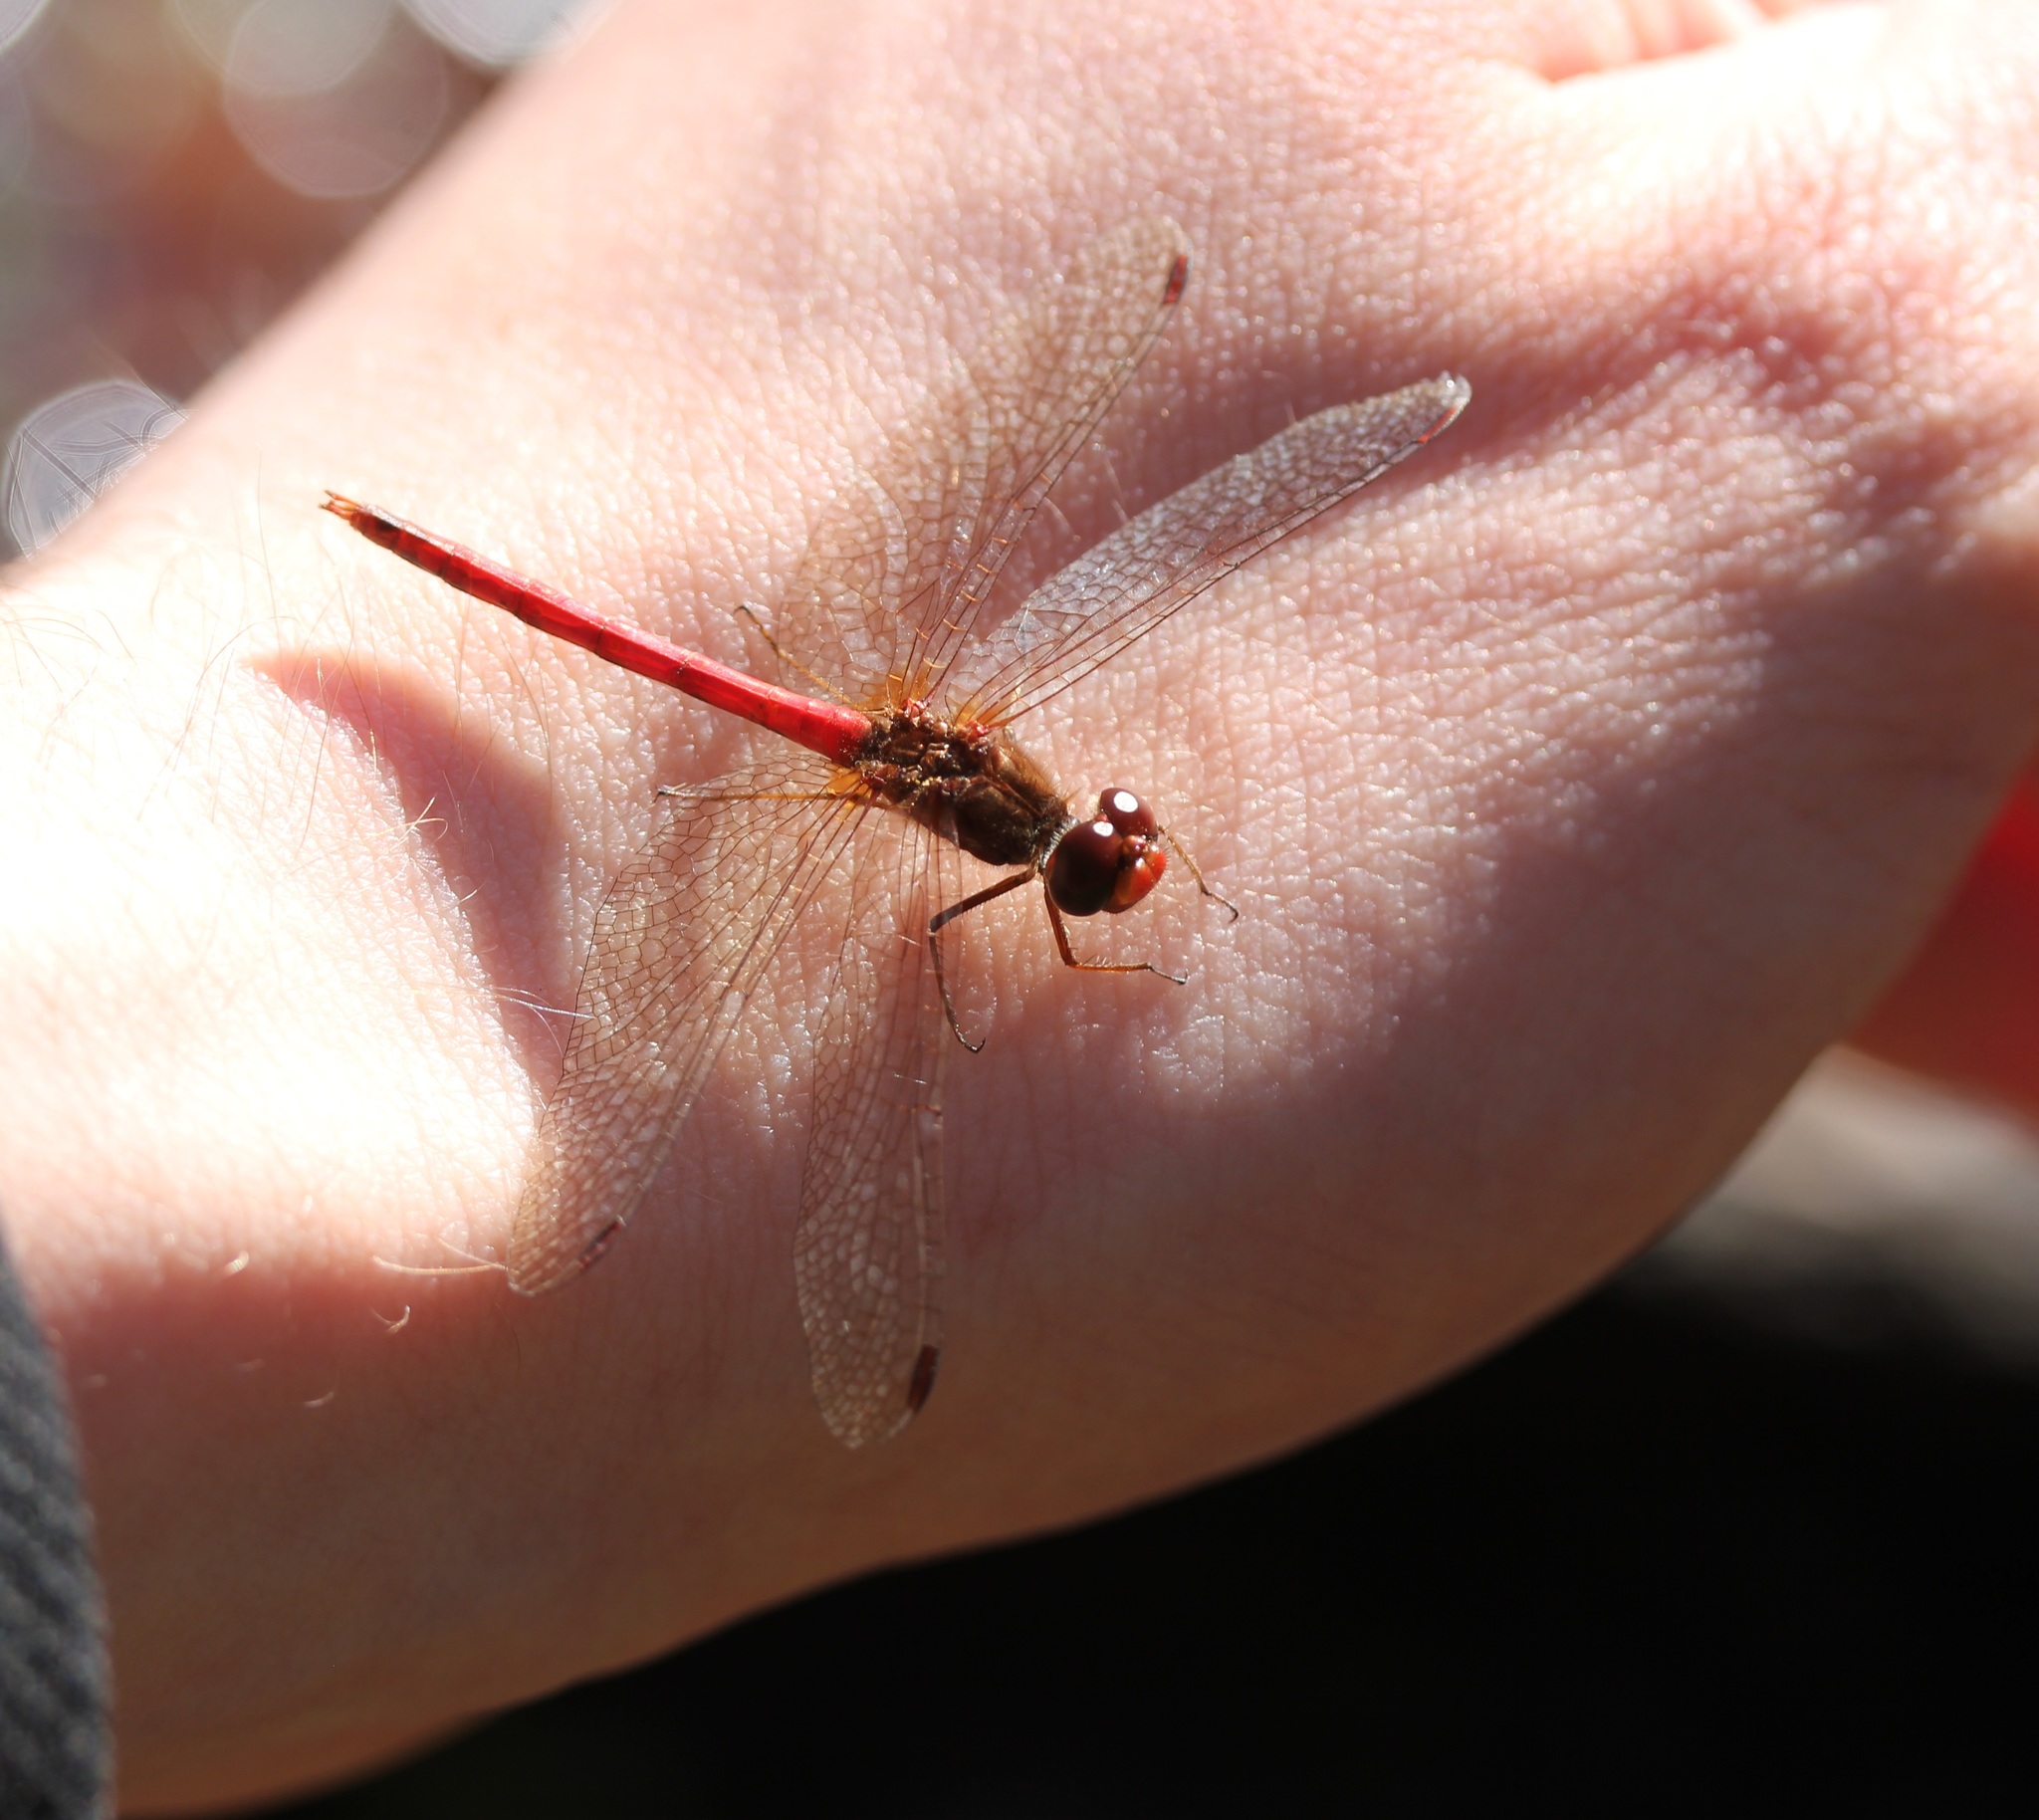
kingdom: Animalia
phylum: Arthropoda
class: Insecta
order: Odonata
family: Libellulidae
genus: Sympetrum
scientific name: Sympetrum vicinum
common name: Autumn meadowhawk
